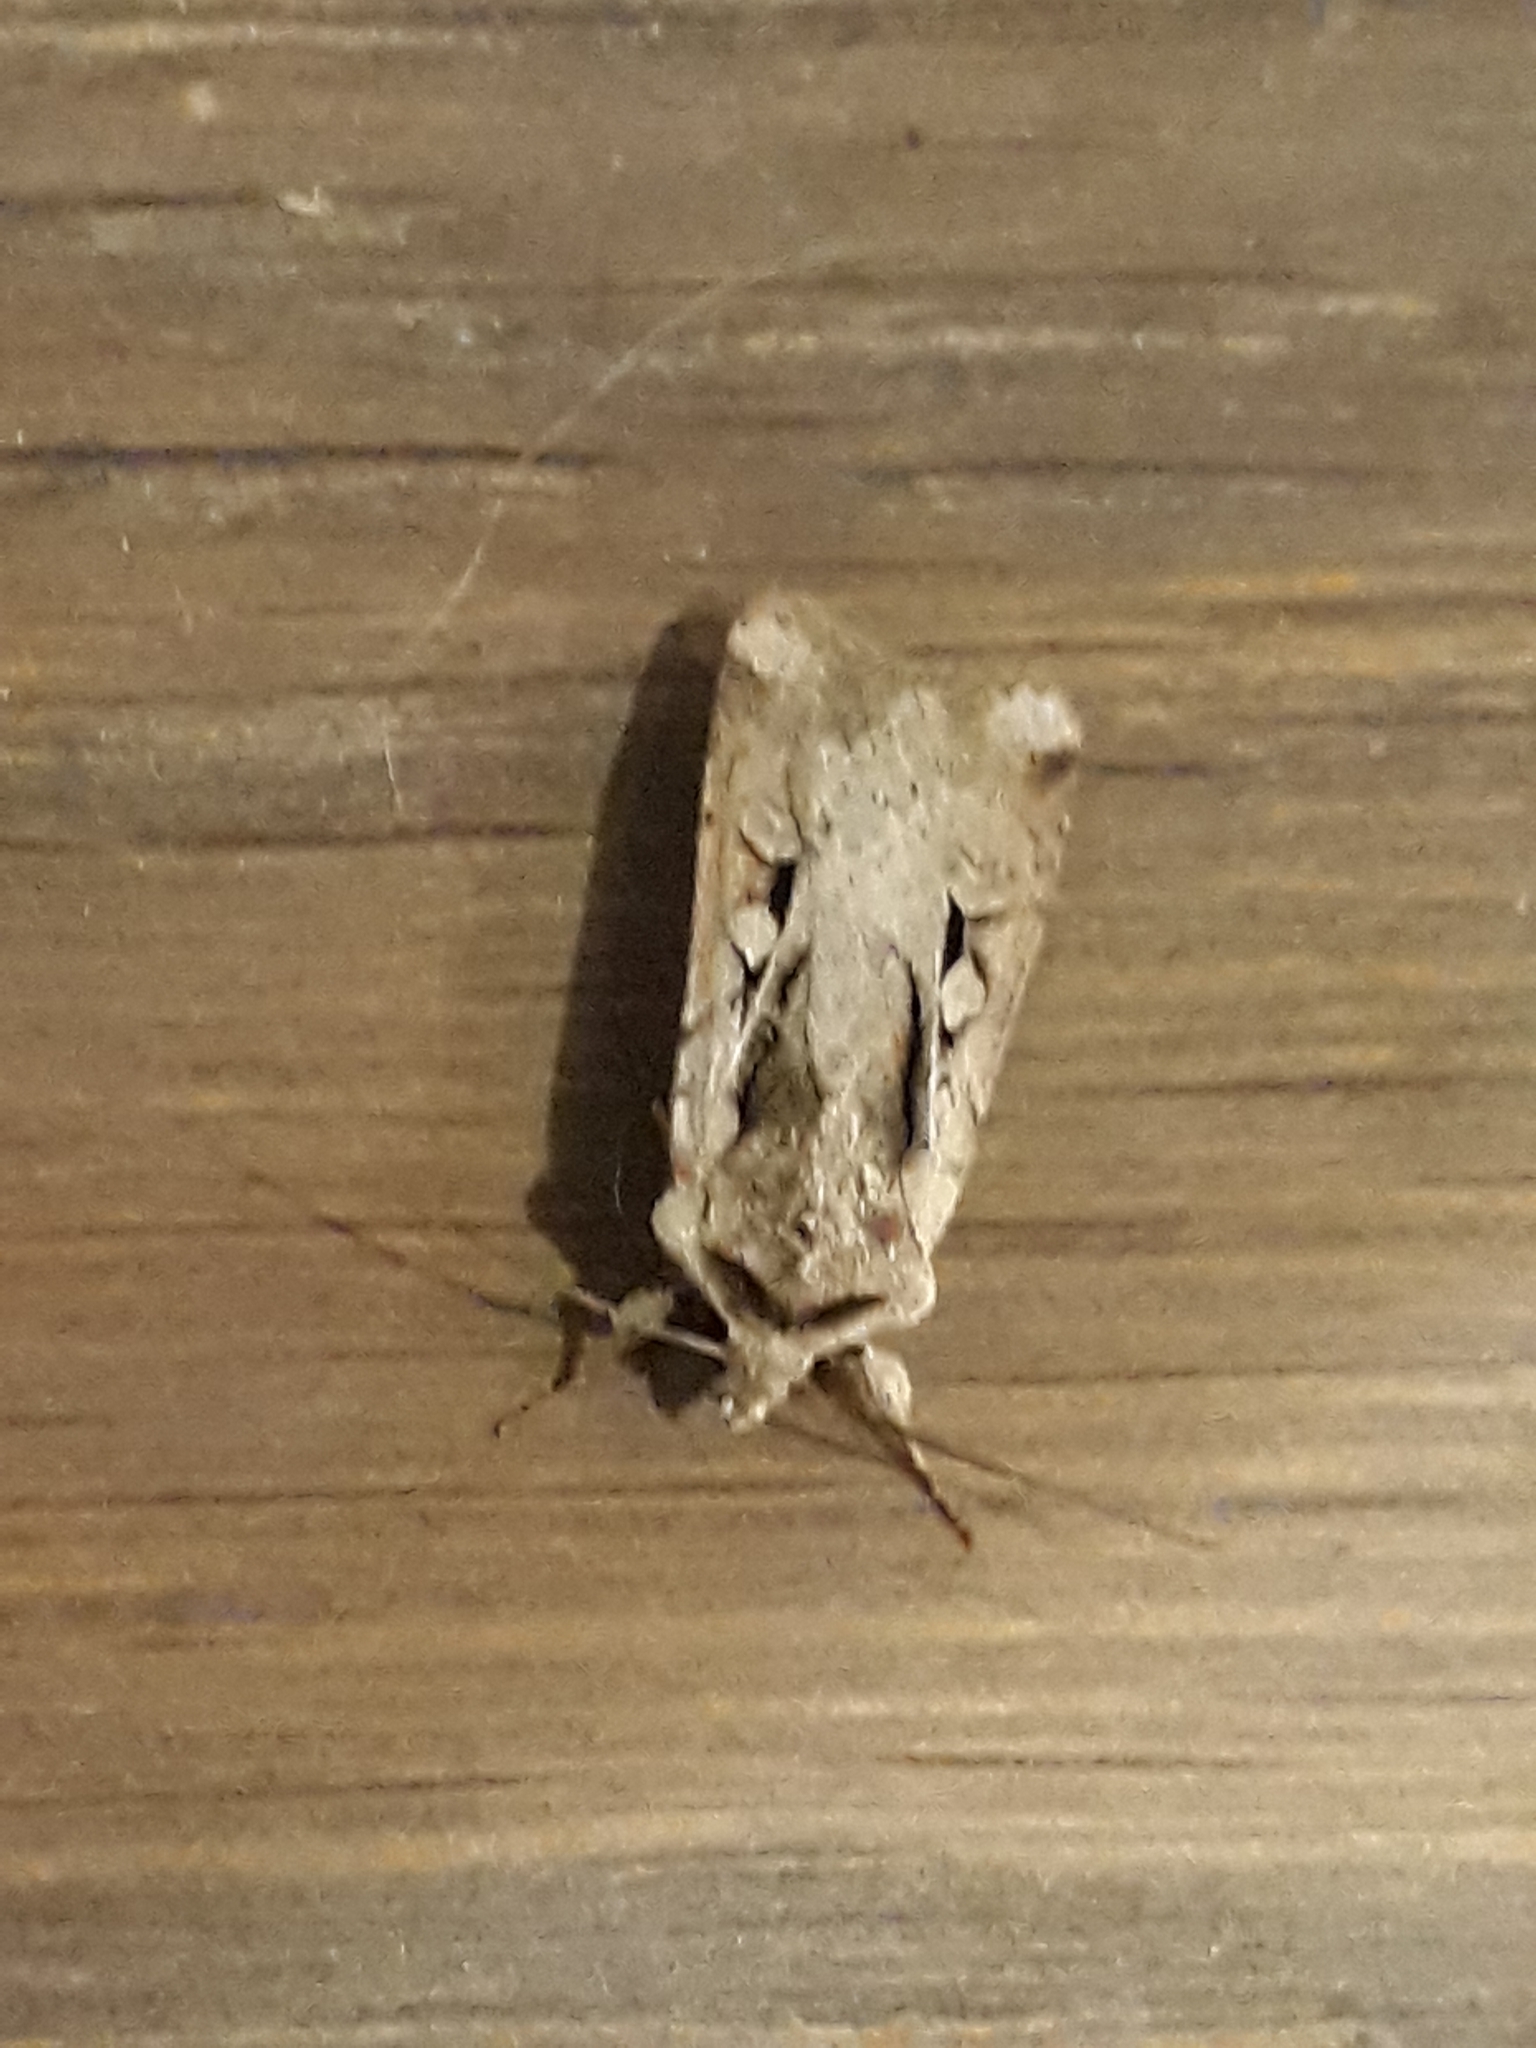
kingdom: Animalia
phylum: Arthropoda
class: Insecta
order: Lepidoptera
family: Noctuidae
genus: Hemieuxoa
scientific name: Hemieuxoa rudens
